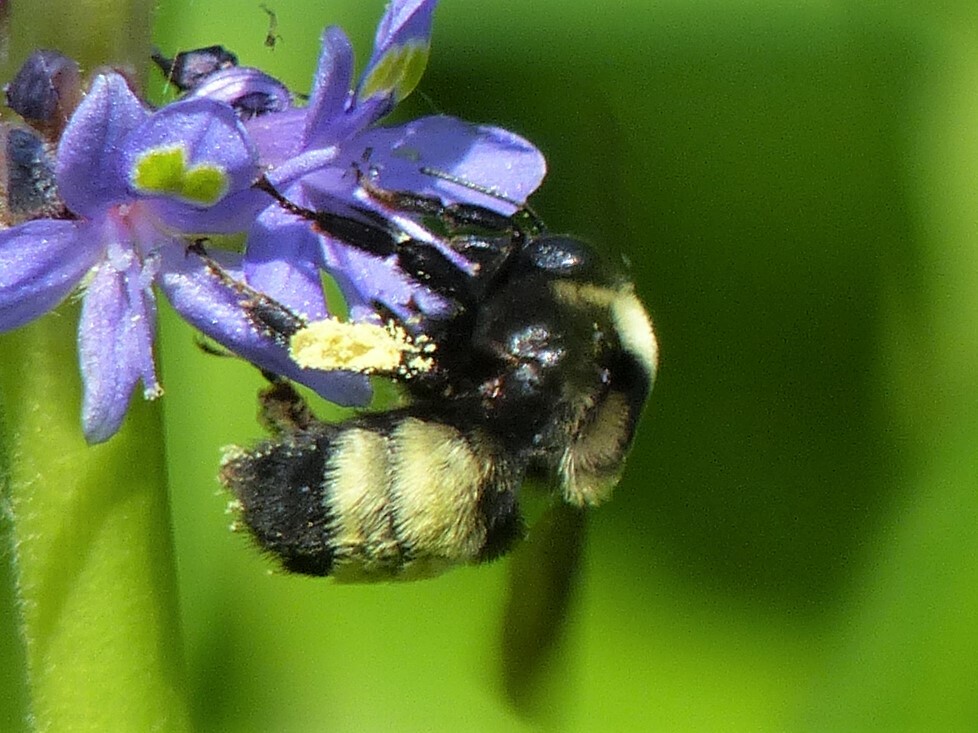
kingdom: Animalia
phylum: Arthropoda
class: Insecta
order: Hymenoptera
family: Apidae
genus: Bombus
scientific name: Bombus auricomus
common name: Black and gold bumble bee
